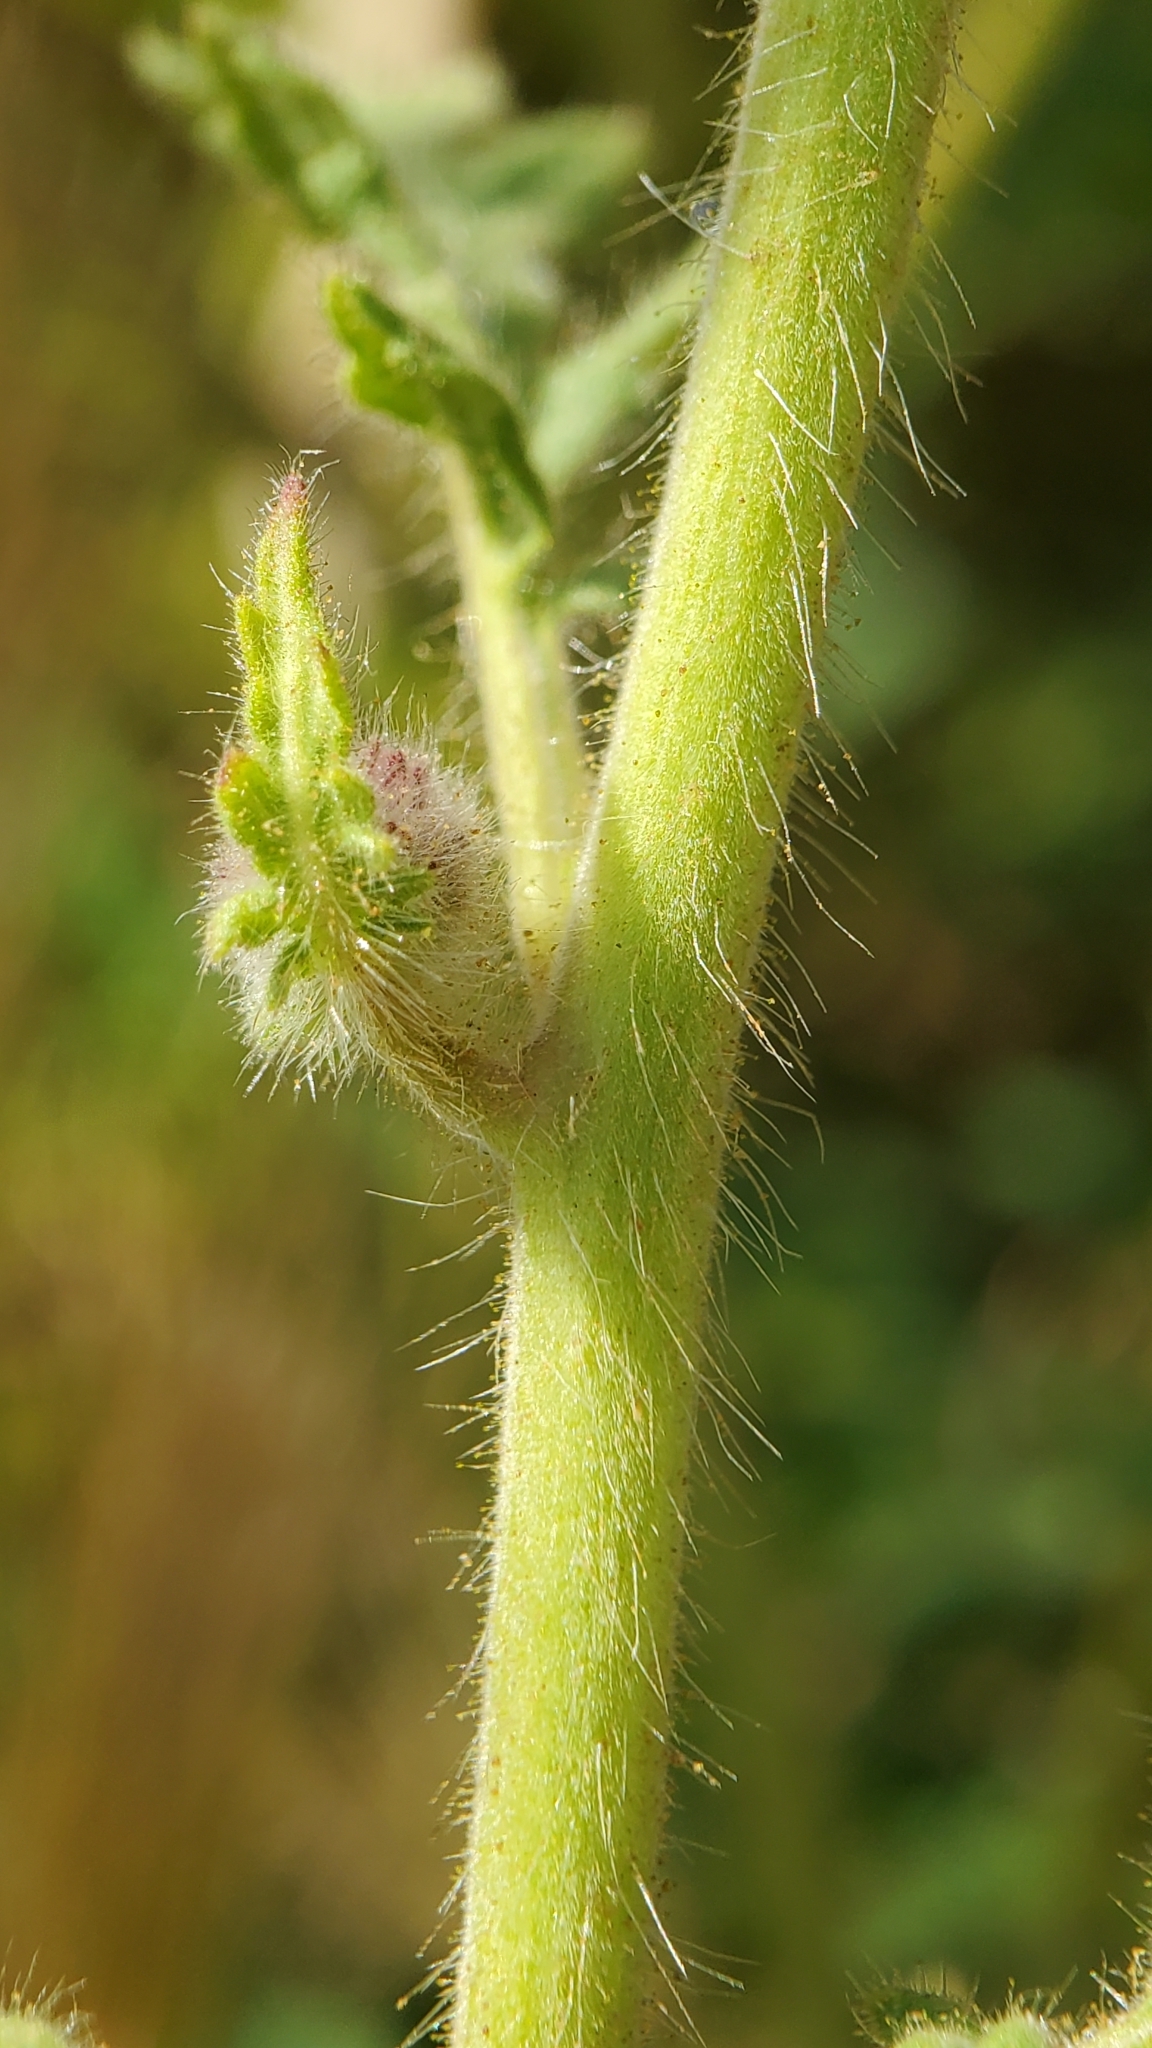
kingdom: Plantae
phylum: Tracheophyta
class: Magnoliopsida
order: Boraginales
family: Hydrophyllaceae
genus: Phacelia
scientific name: Phacelia hubbyi
